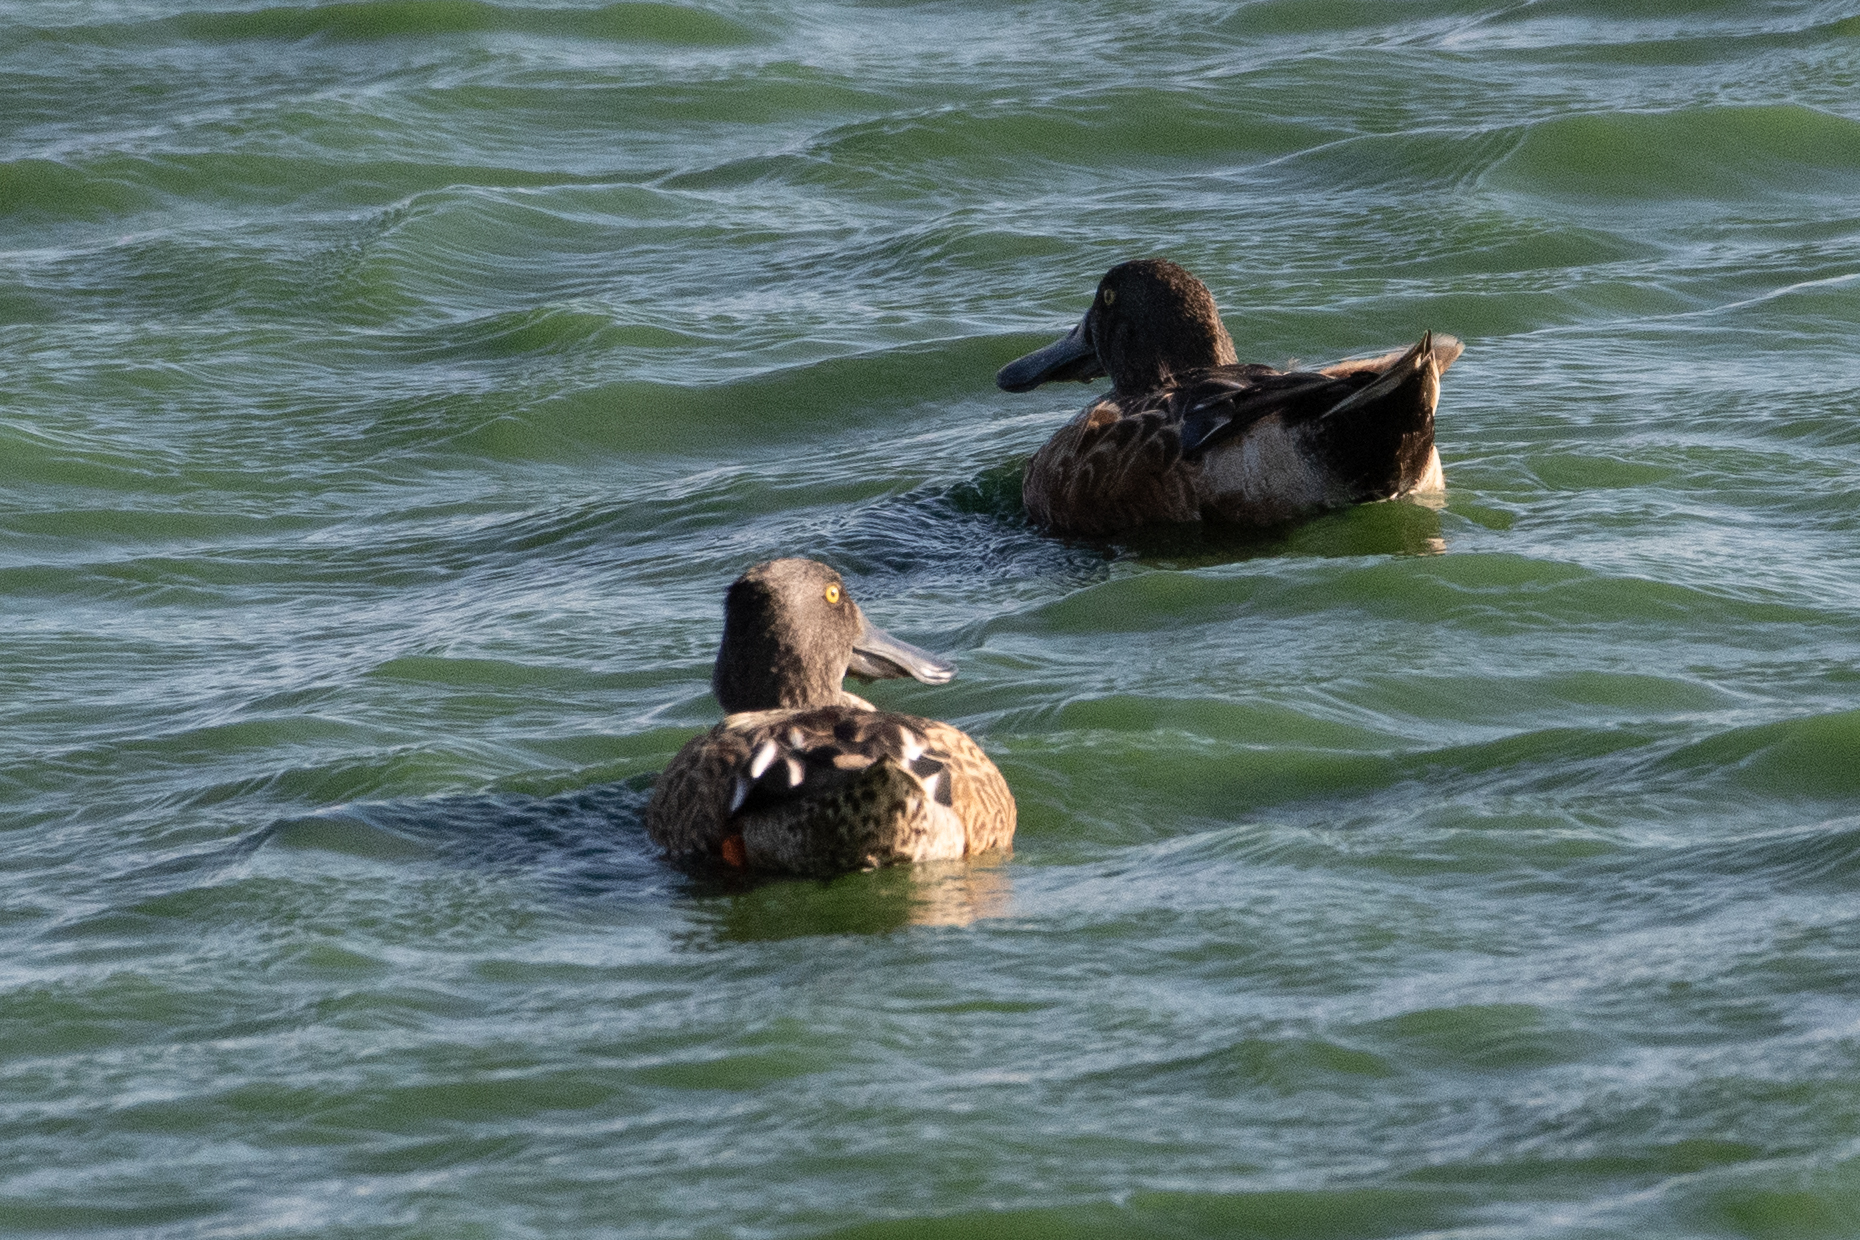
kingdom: Animalia
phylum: Chordata
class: Aves
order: Anseriformes
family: Anatidae
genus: Spatula
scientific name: Spatula clypeata
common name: Northern shoveler
